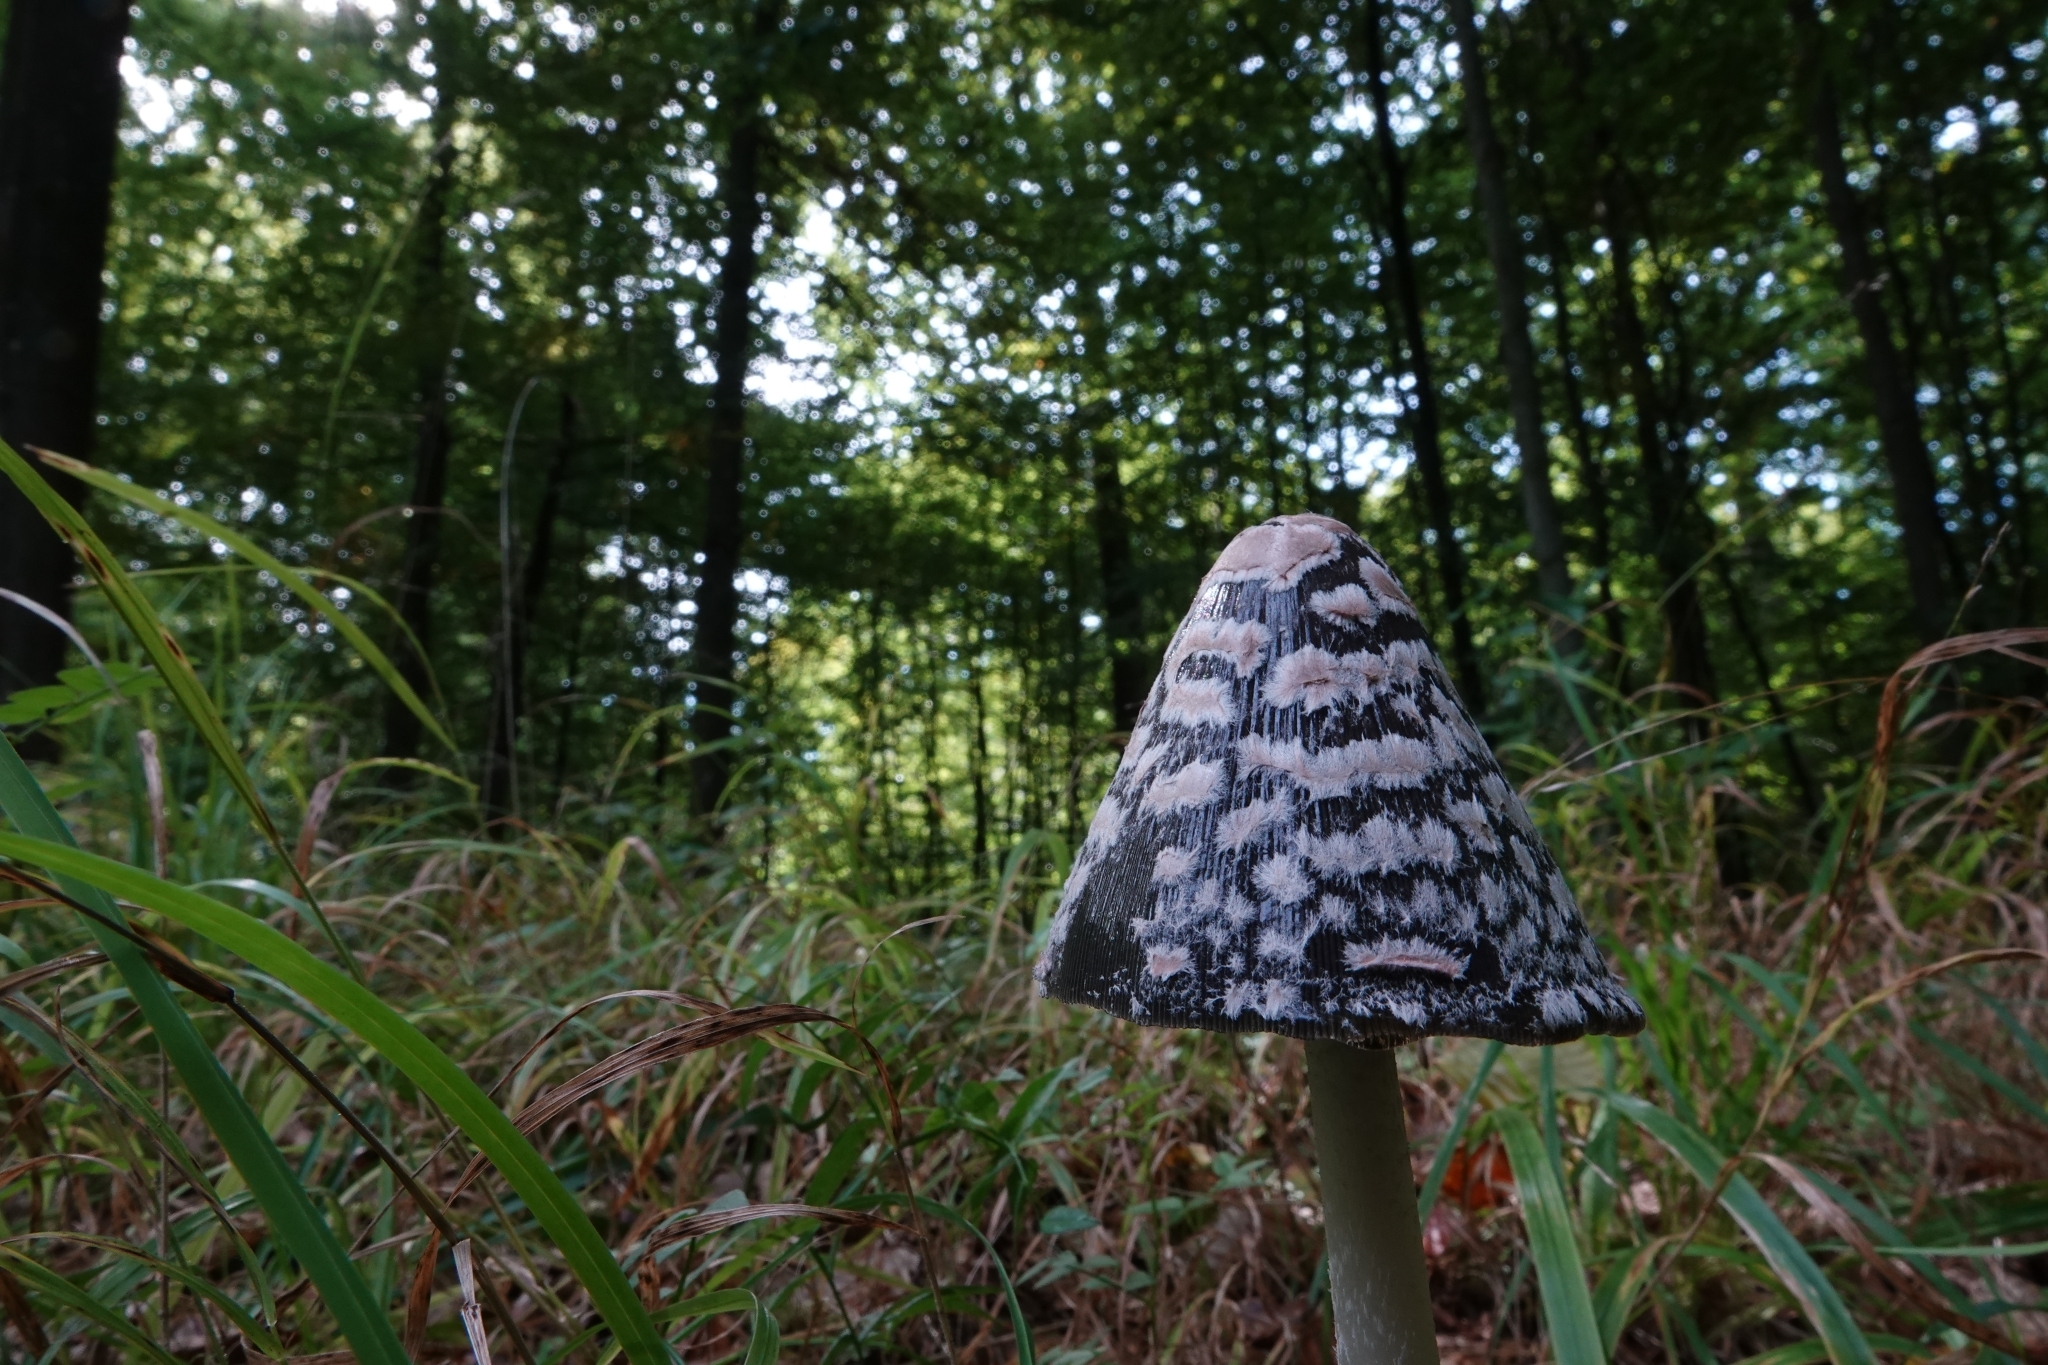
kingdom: Fungi
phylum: Basidiomycota
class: Agaricomycetes
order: Agaricales
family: Psathyrellaceae
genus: Coprinopsis
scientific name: Coprinopsis picacea
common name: Magpie inkcap
